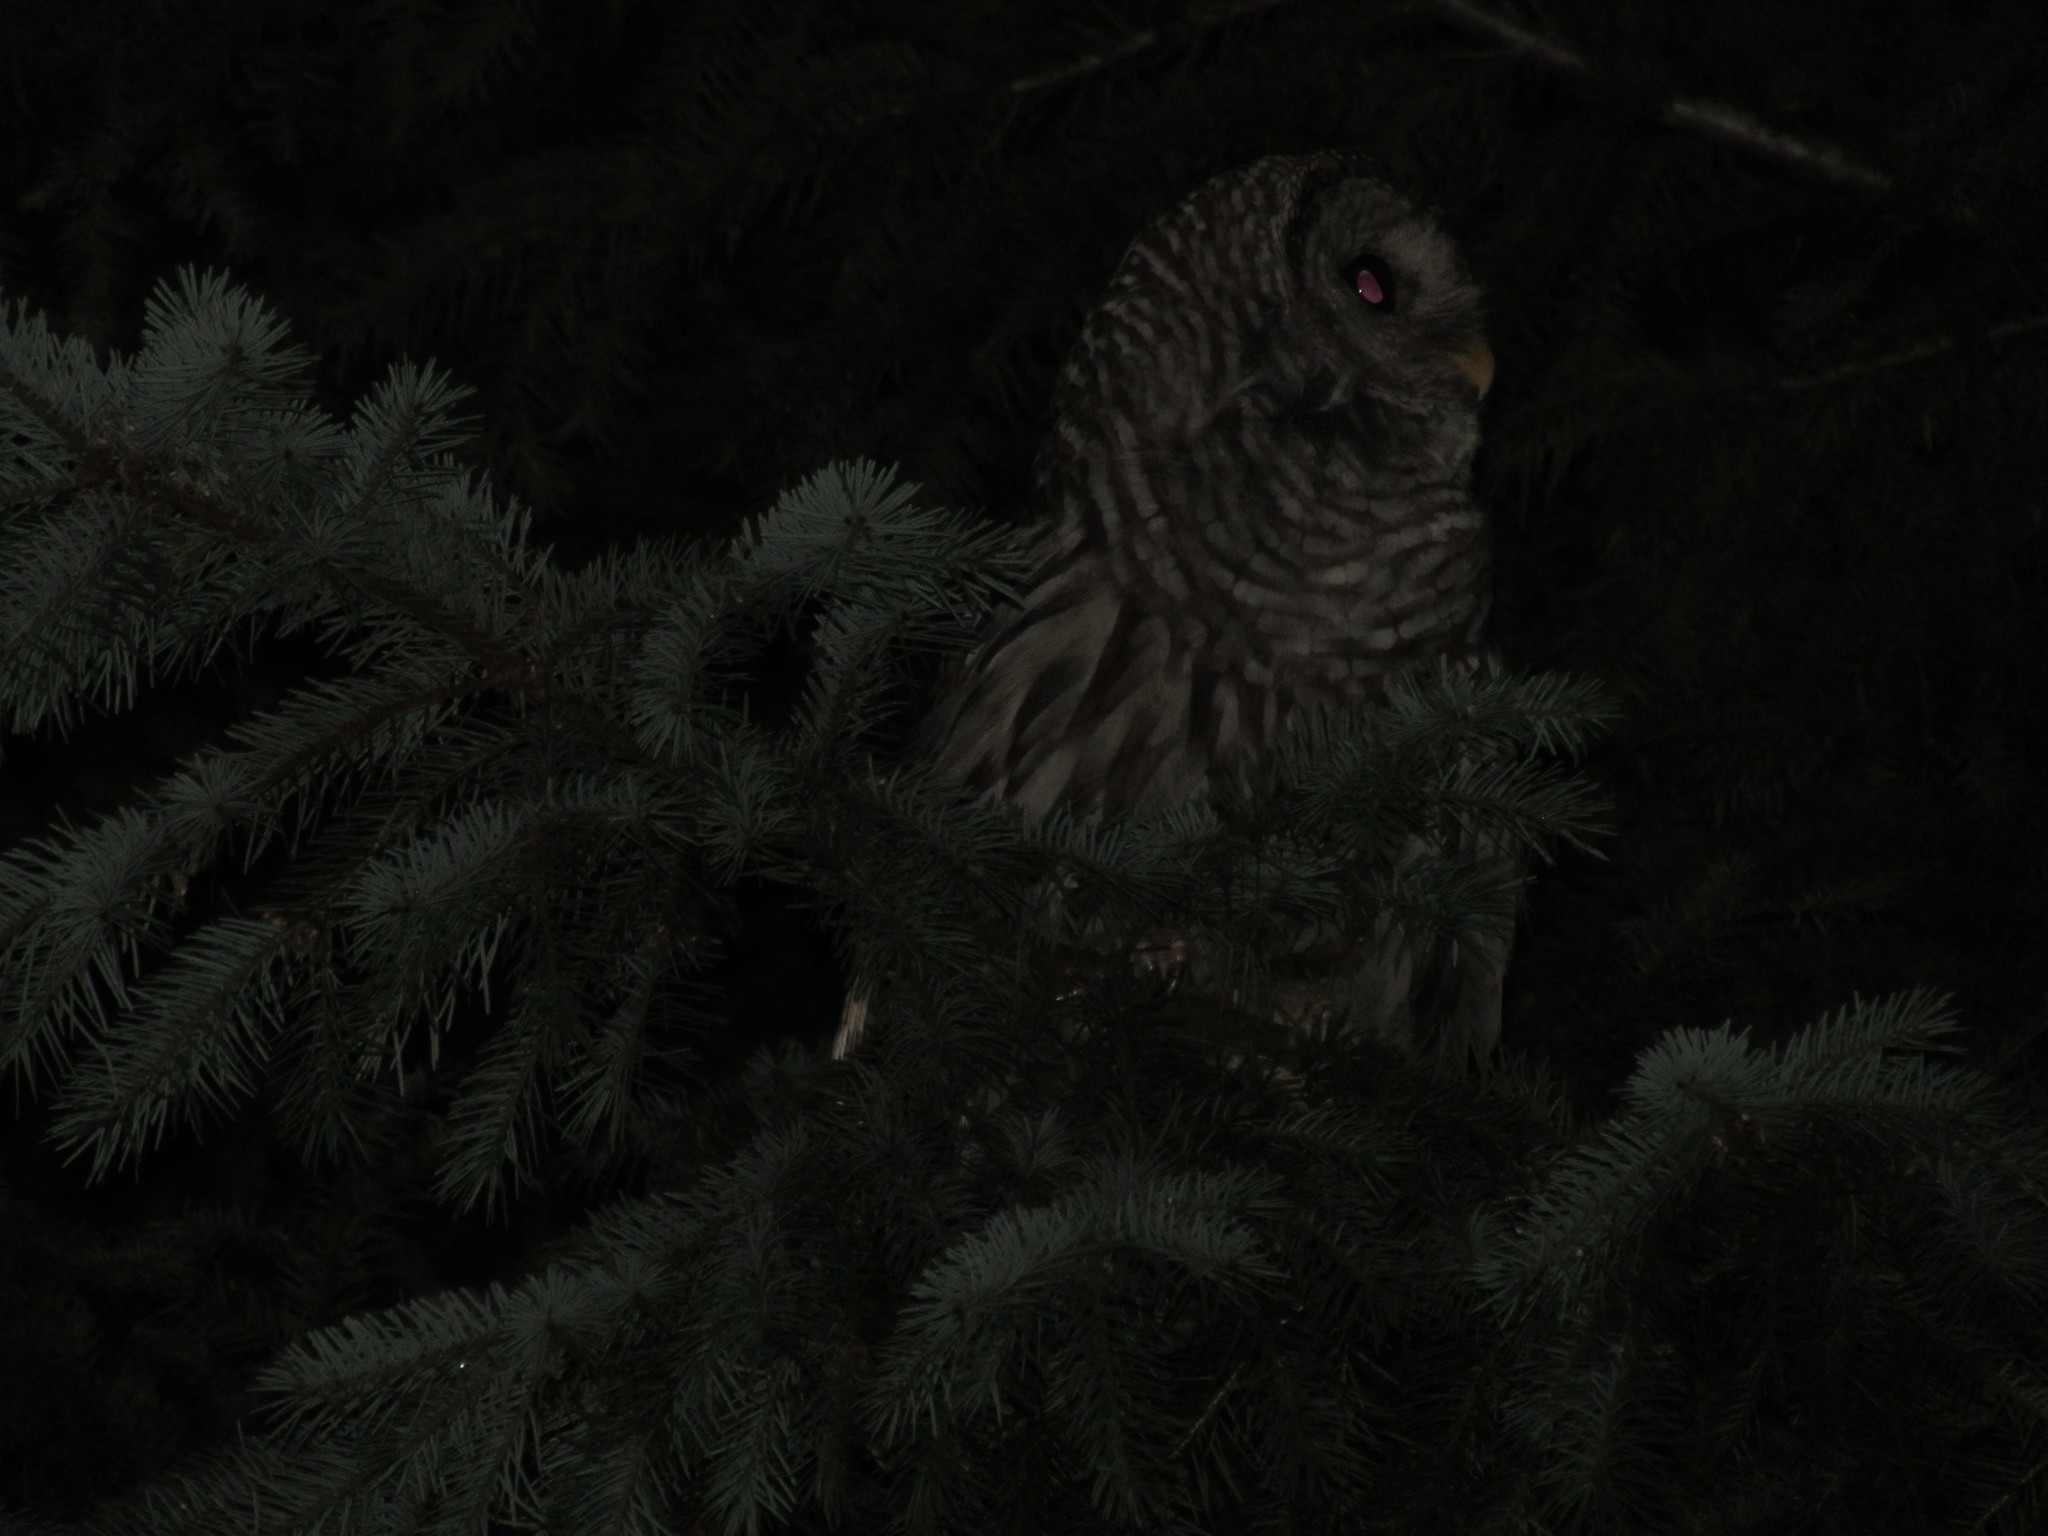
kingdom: Animalia
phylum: Chordata
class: Aves
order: Strigiformes
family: Strigidae
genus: Strix
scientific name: Strix varia
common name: Barred owl
